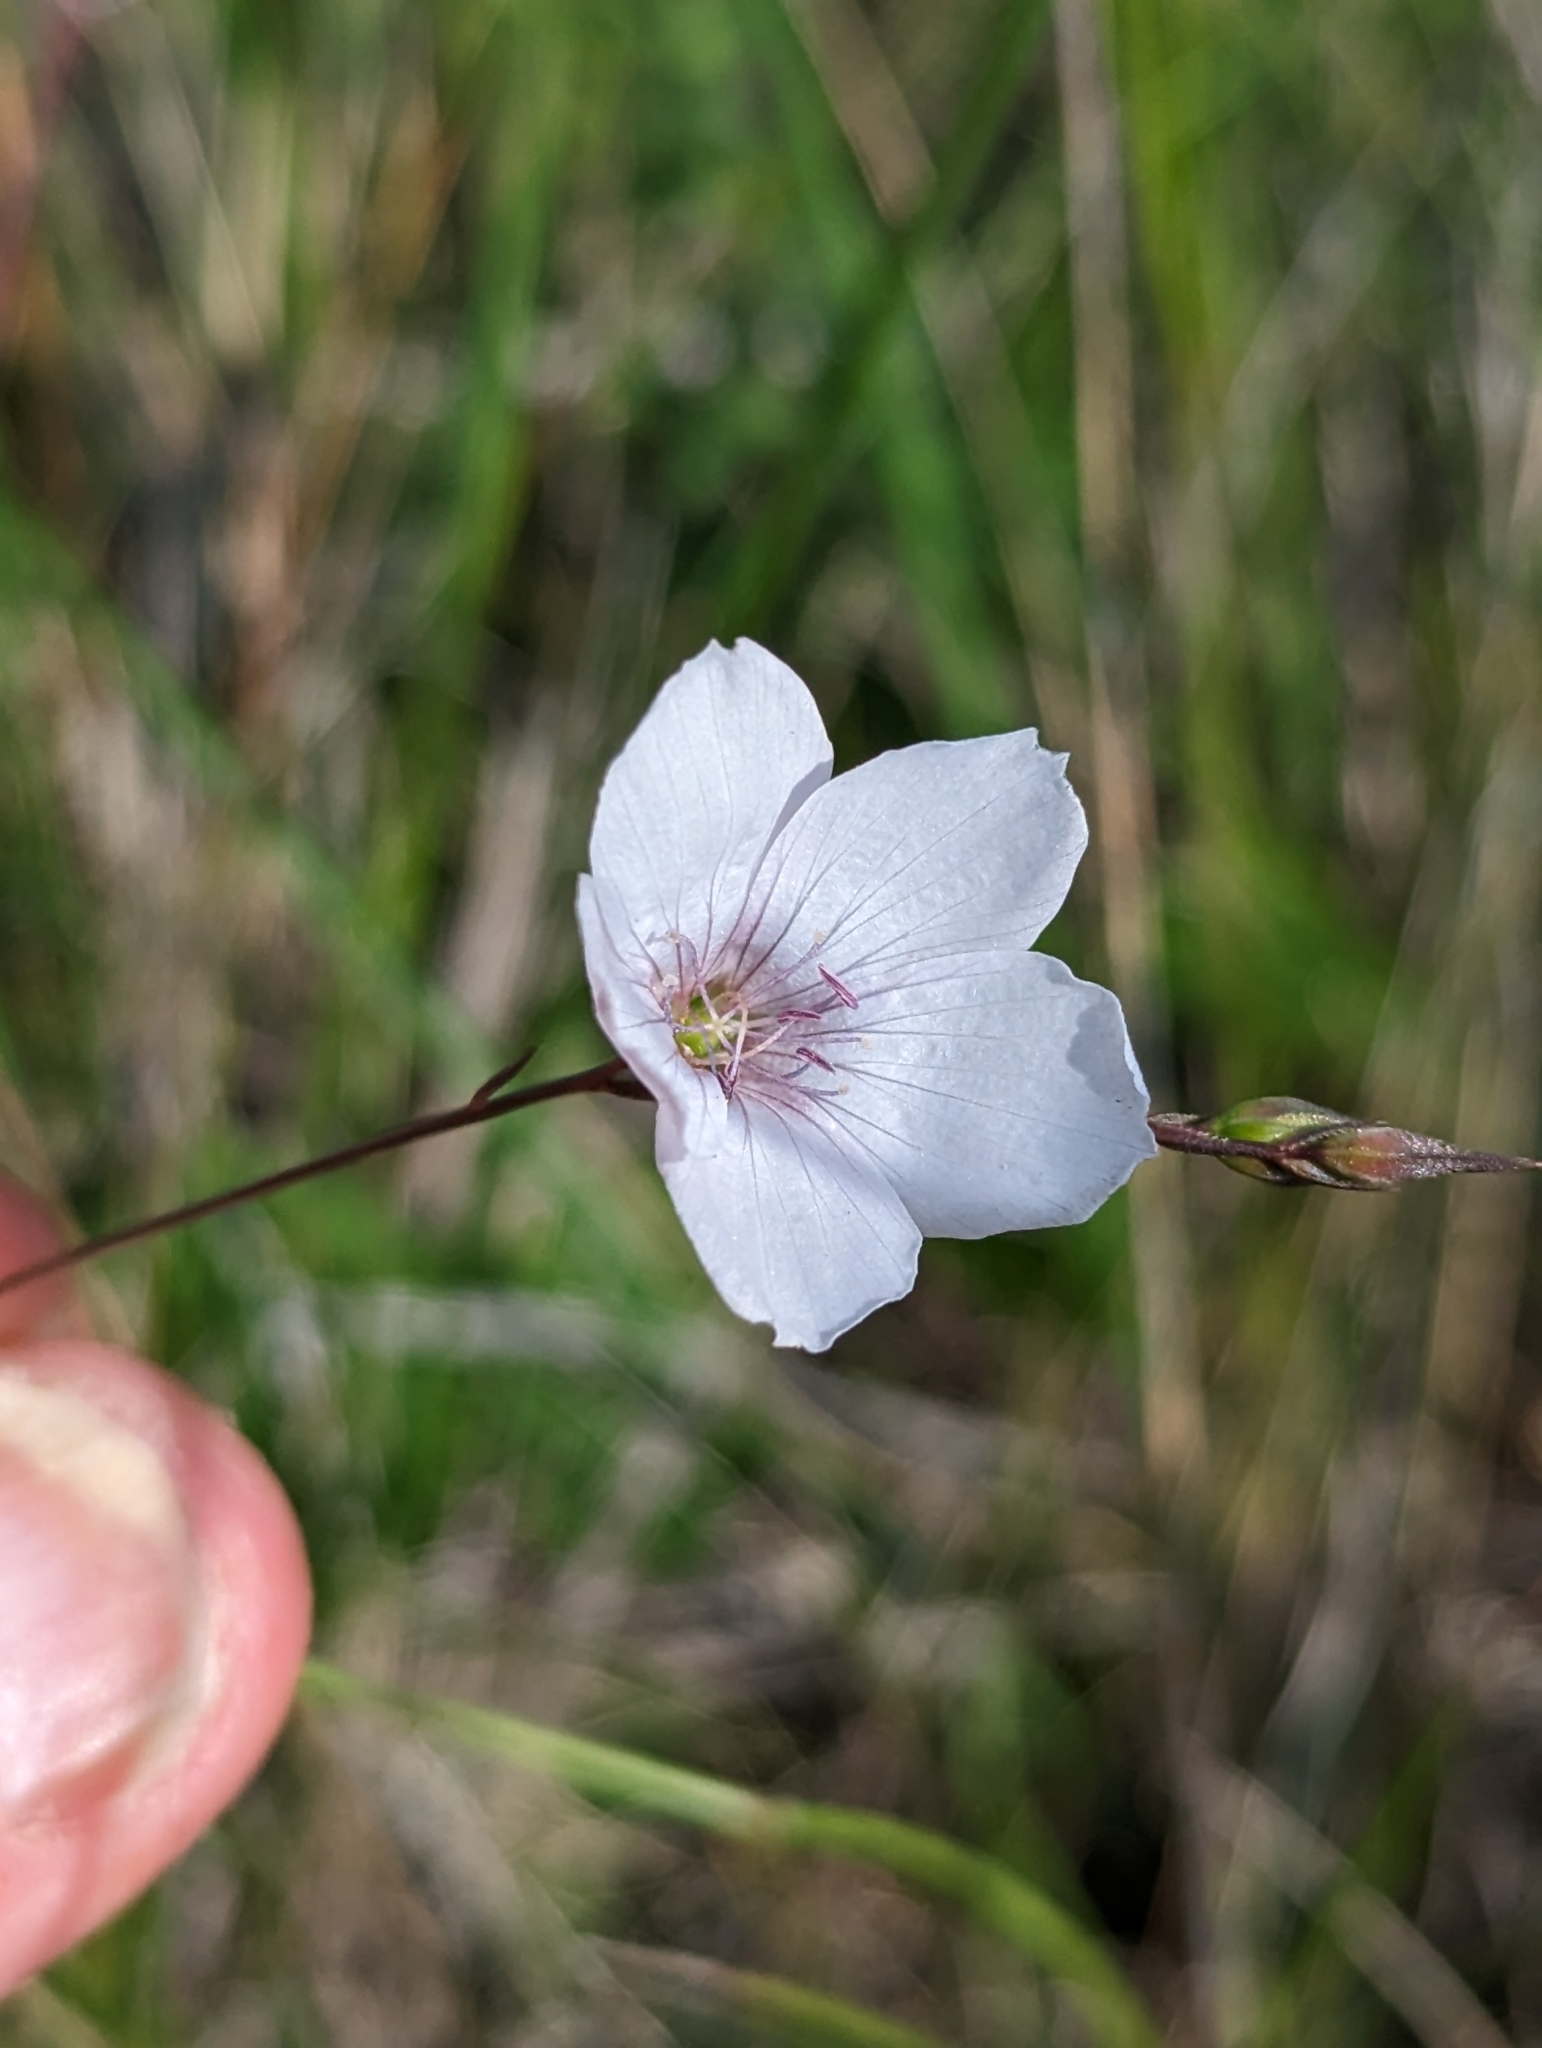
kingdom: Plantae
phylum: Tracheophyta
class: Magnoliopsida
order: Malpighiales
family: Linaceae
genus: Linum
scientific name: Linum tenuifolium
